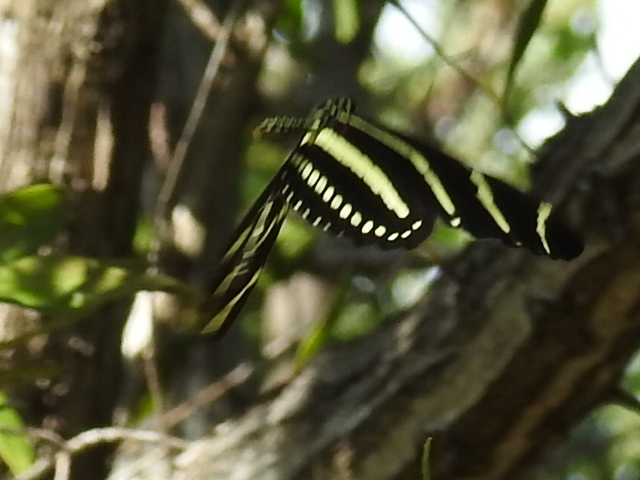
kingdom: Animalia
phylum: Arthropoda
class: Insecta
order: Lepidoptera
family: Nymphalidae
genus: Heliconius
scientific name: Heliconius charithonia
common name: Zebra long wing
